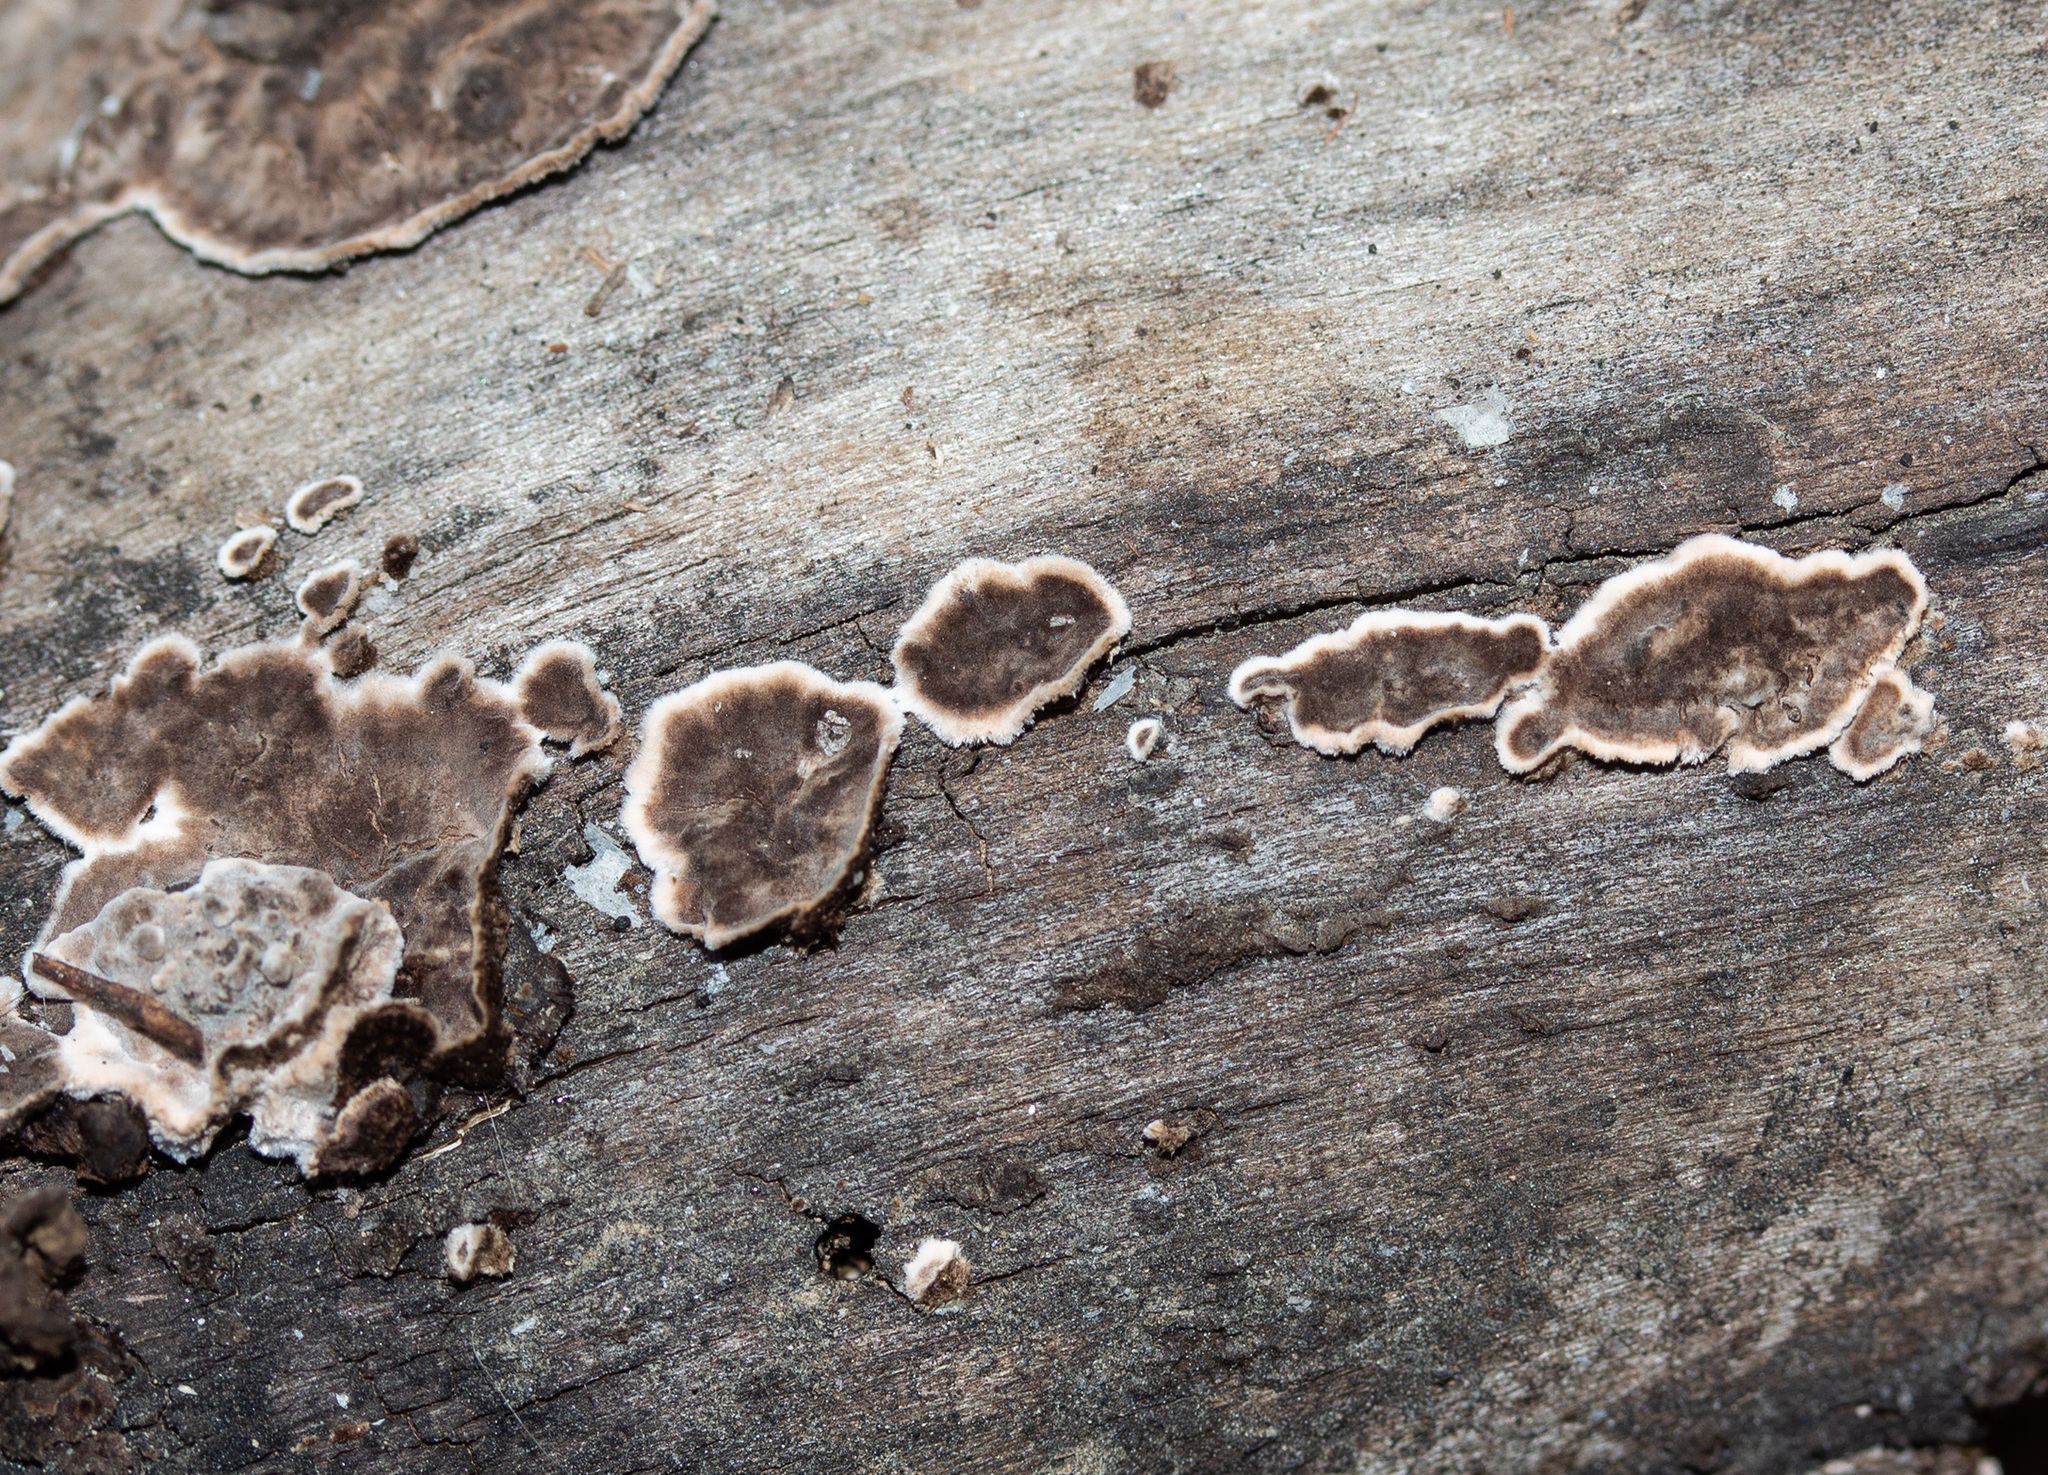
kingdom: Fungi
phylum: Basidiomycota
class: Agaricomycetes
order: Russulales
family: Peniophoraceae
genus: Peniophora
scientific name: Peniophora albobadia
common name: Giraffe spots
